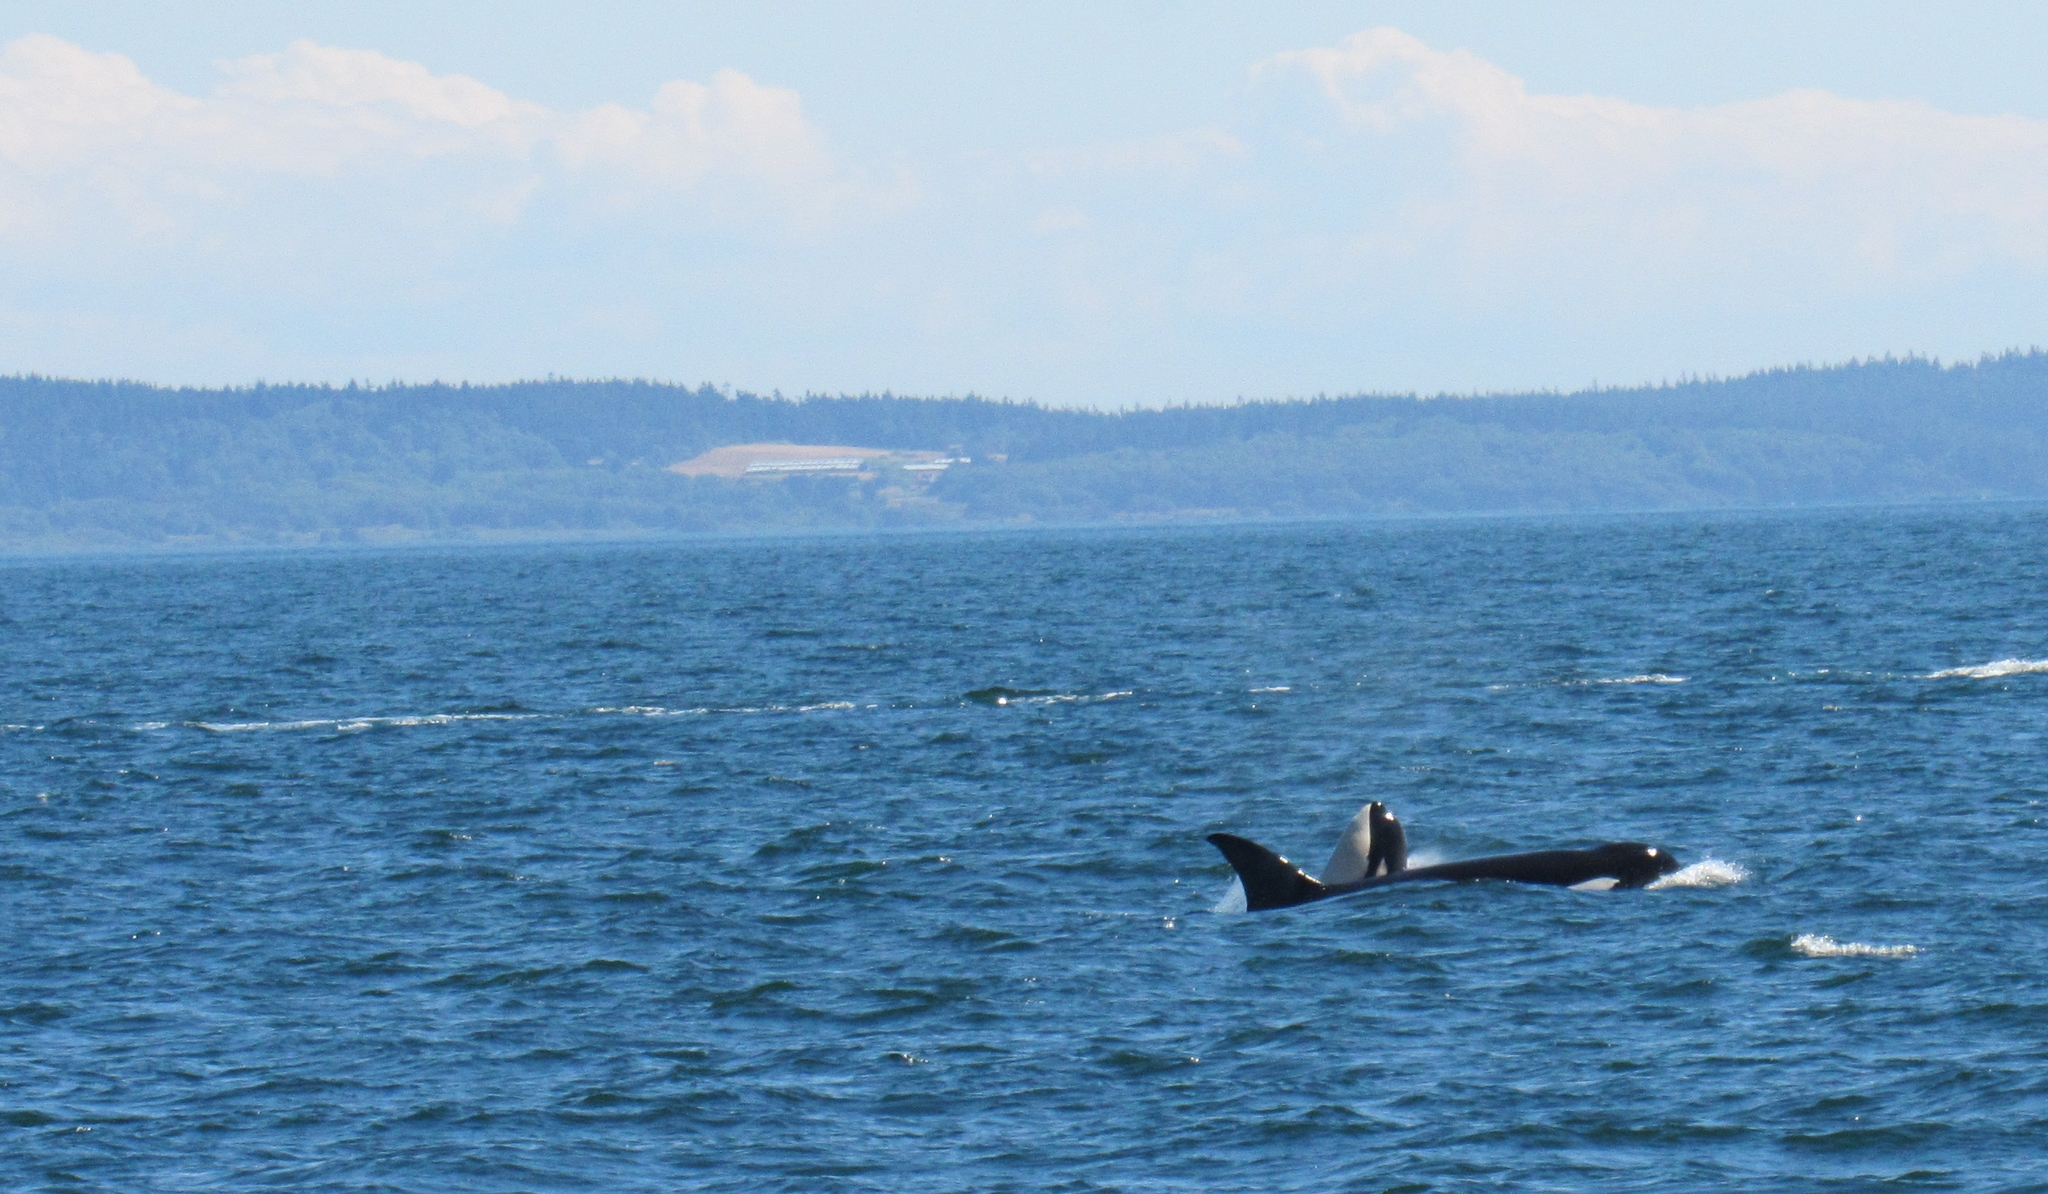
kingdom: Animalia
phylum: Chordata
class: Mammalia
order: Cetacea
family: Delphinidae
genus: Orcinus
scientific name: Orcinus orca
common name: Killer whale
